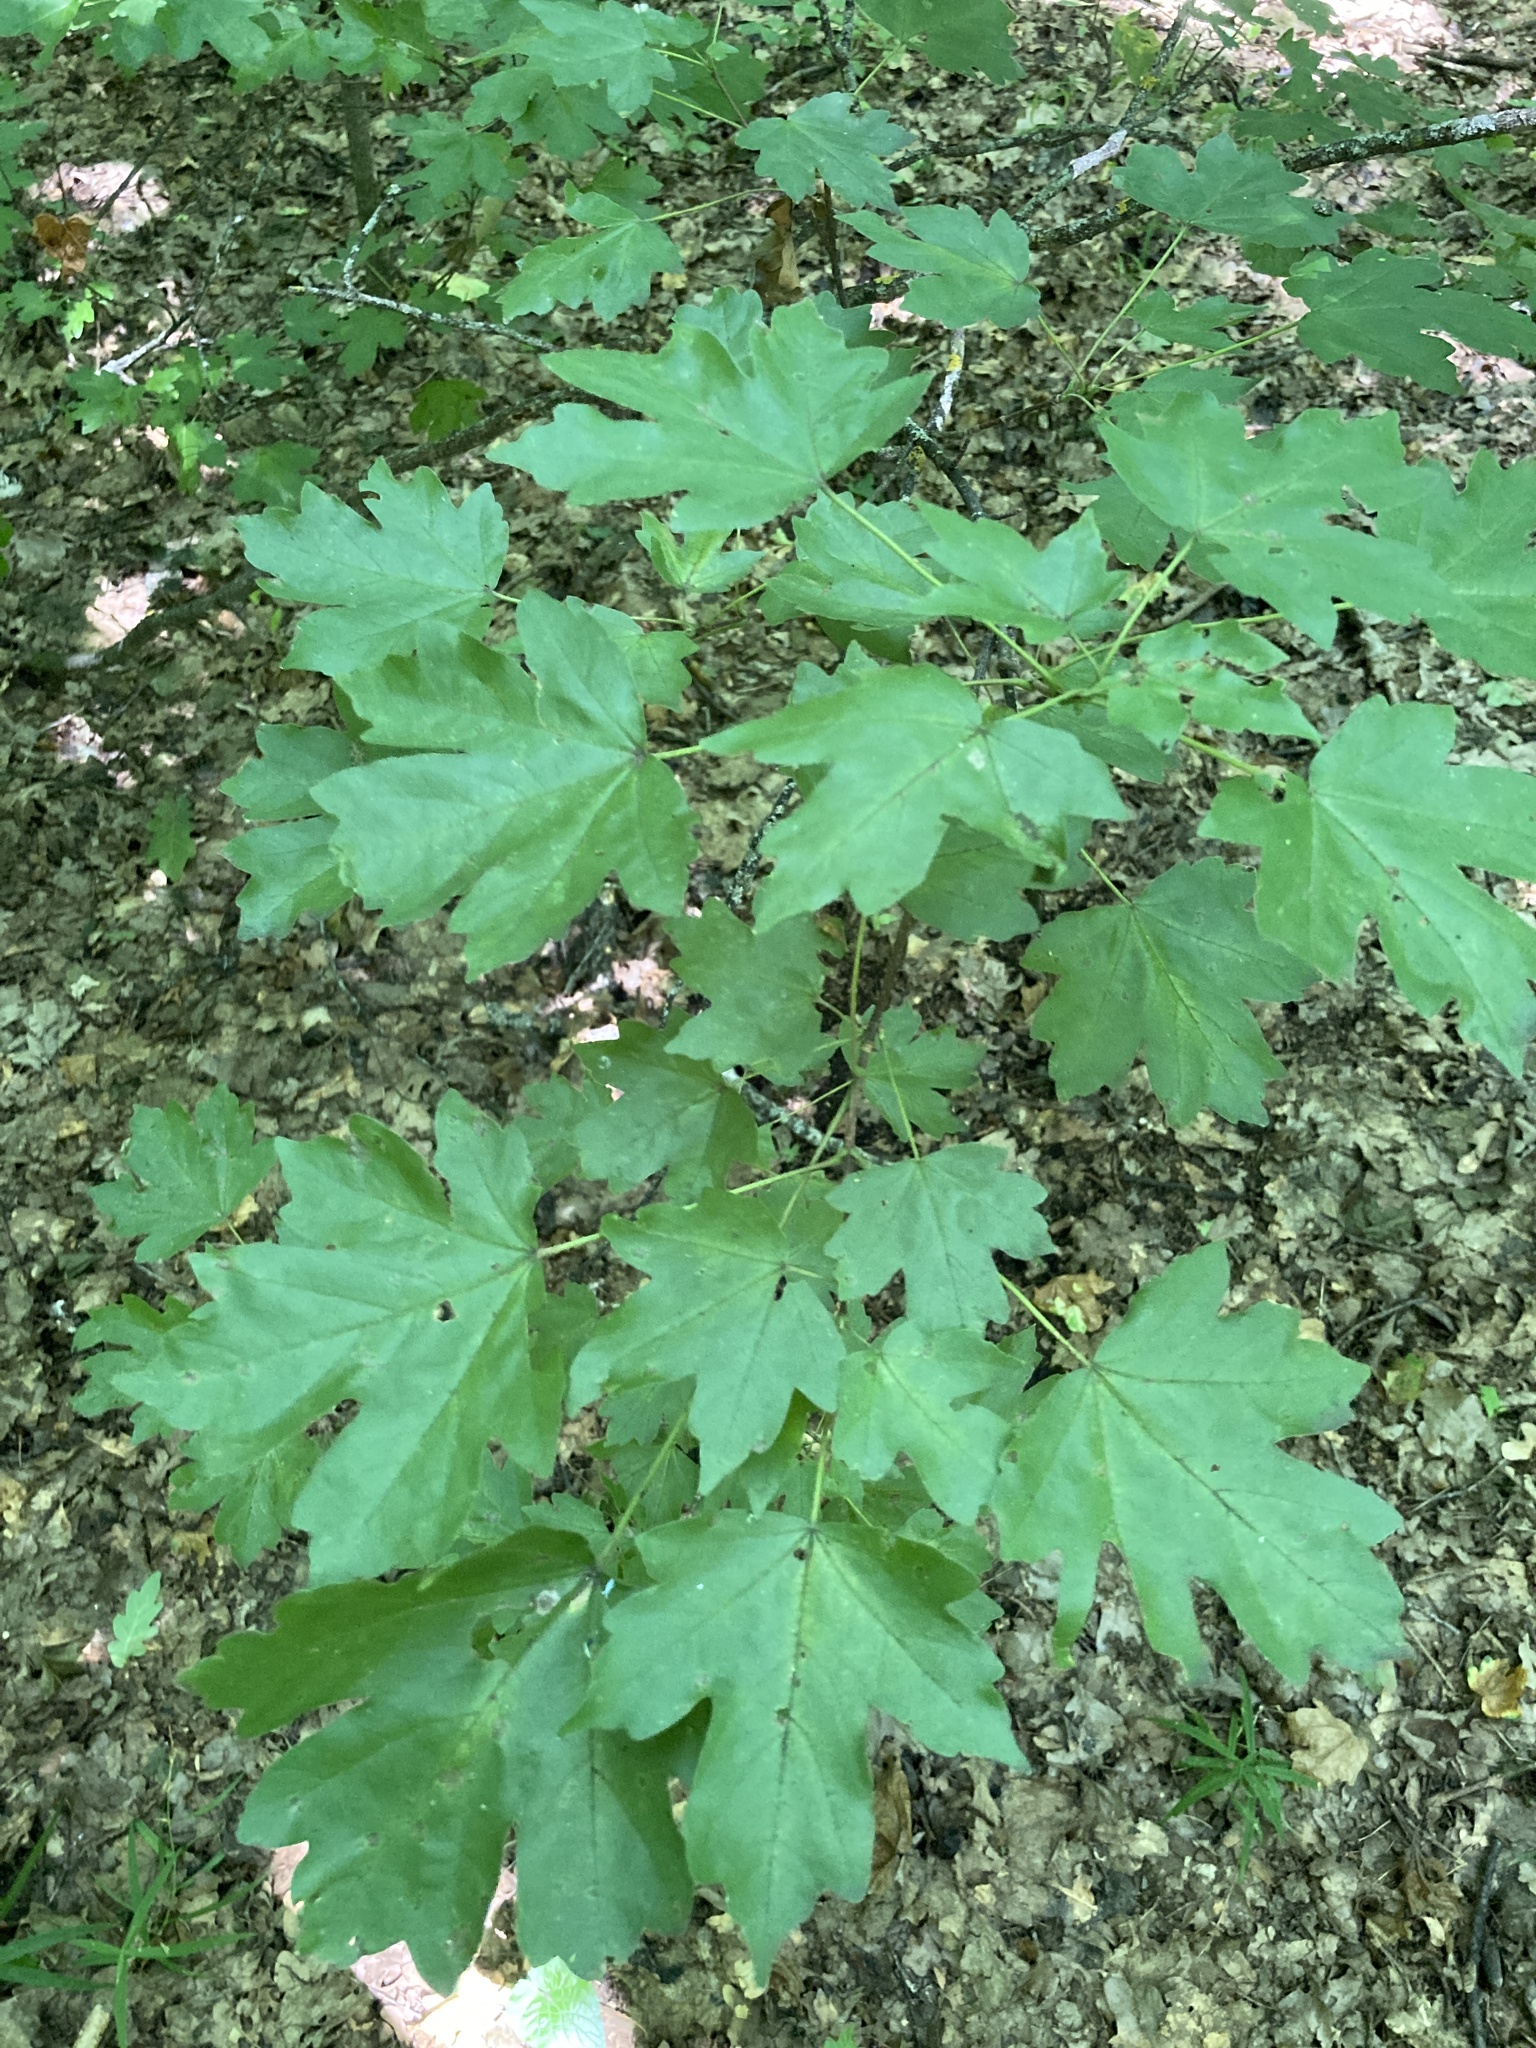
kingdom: Plantae
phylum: Tracheophyta
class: Magnoliopsida
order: Sapindales
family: Sapindaceae
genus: Acer
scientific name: Acer campestre
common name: Field maple
